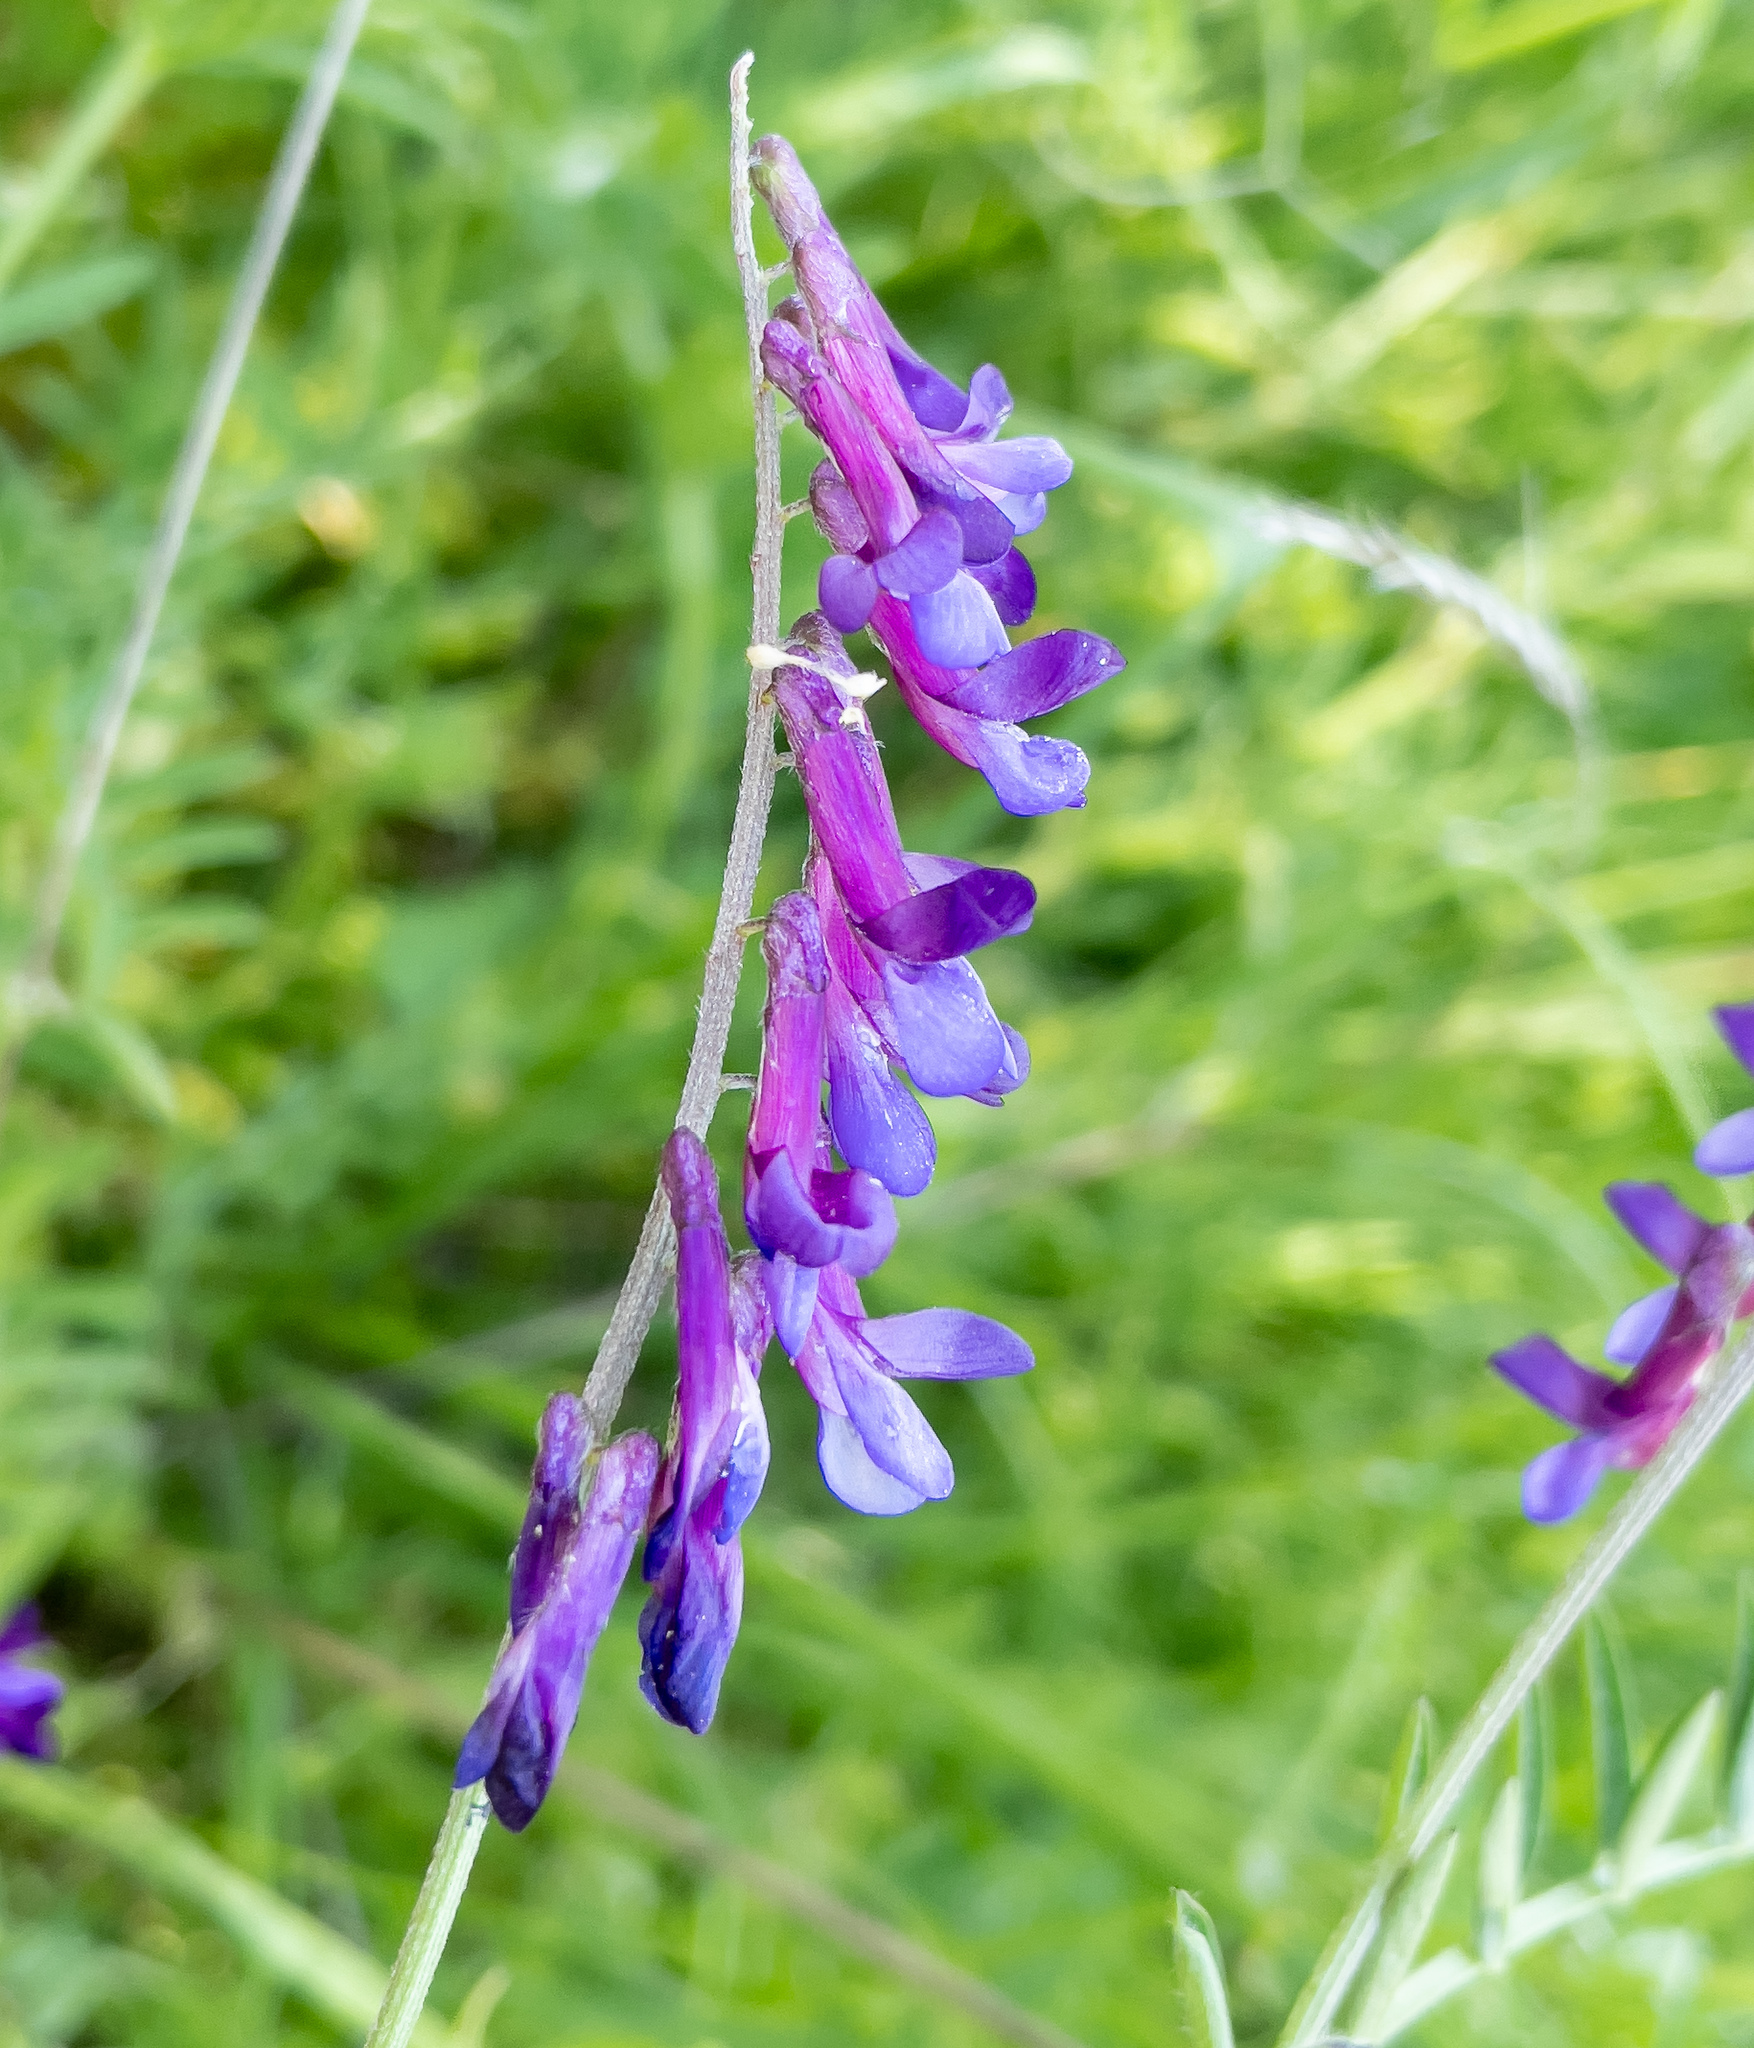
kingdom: Plantae
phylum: Tracheophyta
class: Magnoliopsida
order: Fabales
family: Fabaceae
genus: Vicia
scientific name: Vicia villosa
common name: Fodder vetch
